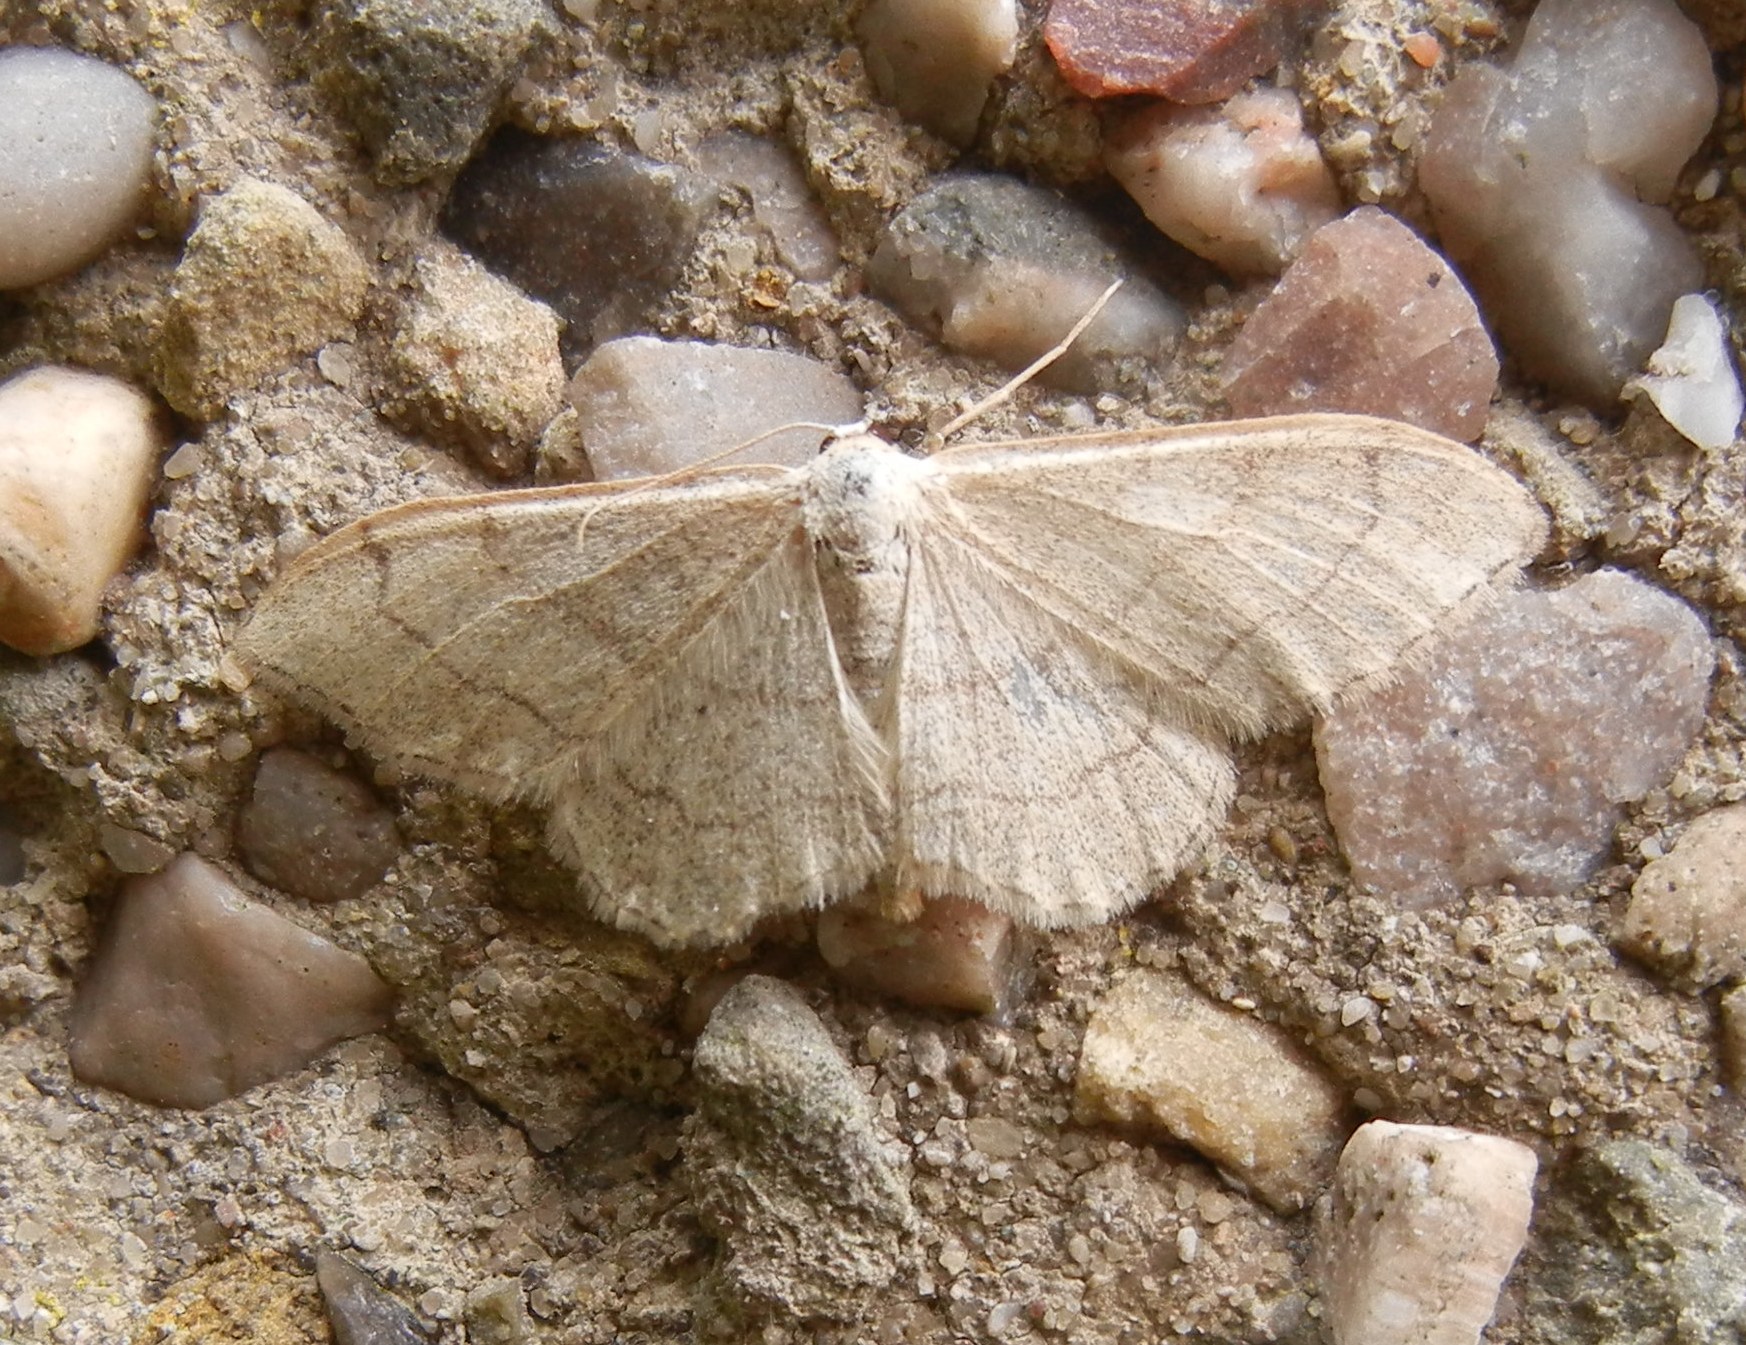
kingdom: Animalia
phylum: Arthropoda
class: Insecta
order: Lepidoptera
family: Geometridae
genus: Idaea
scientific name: Idaea aversata
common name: Riband wave
